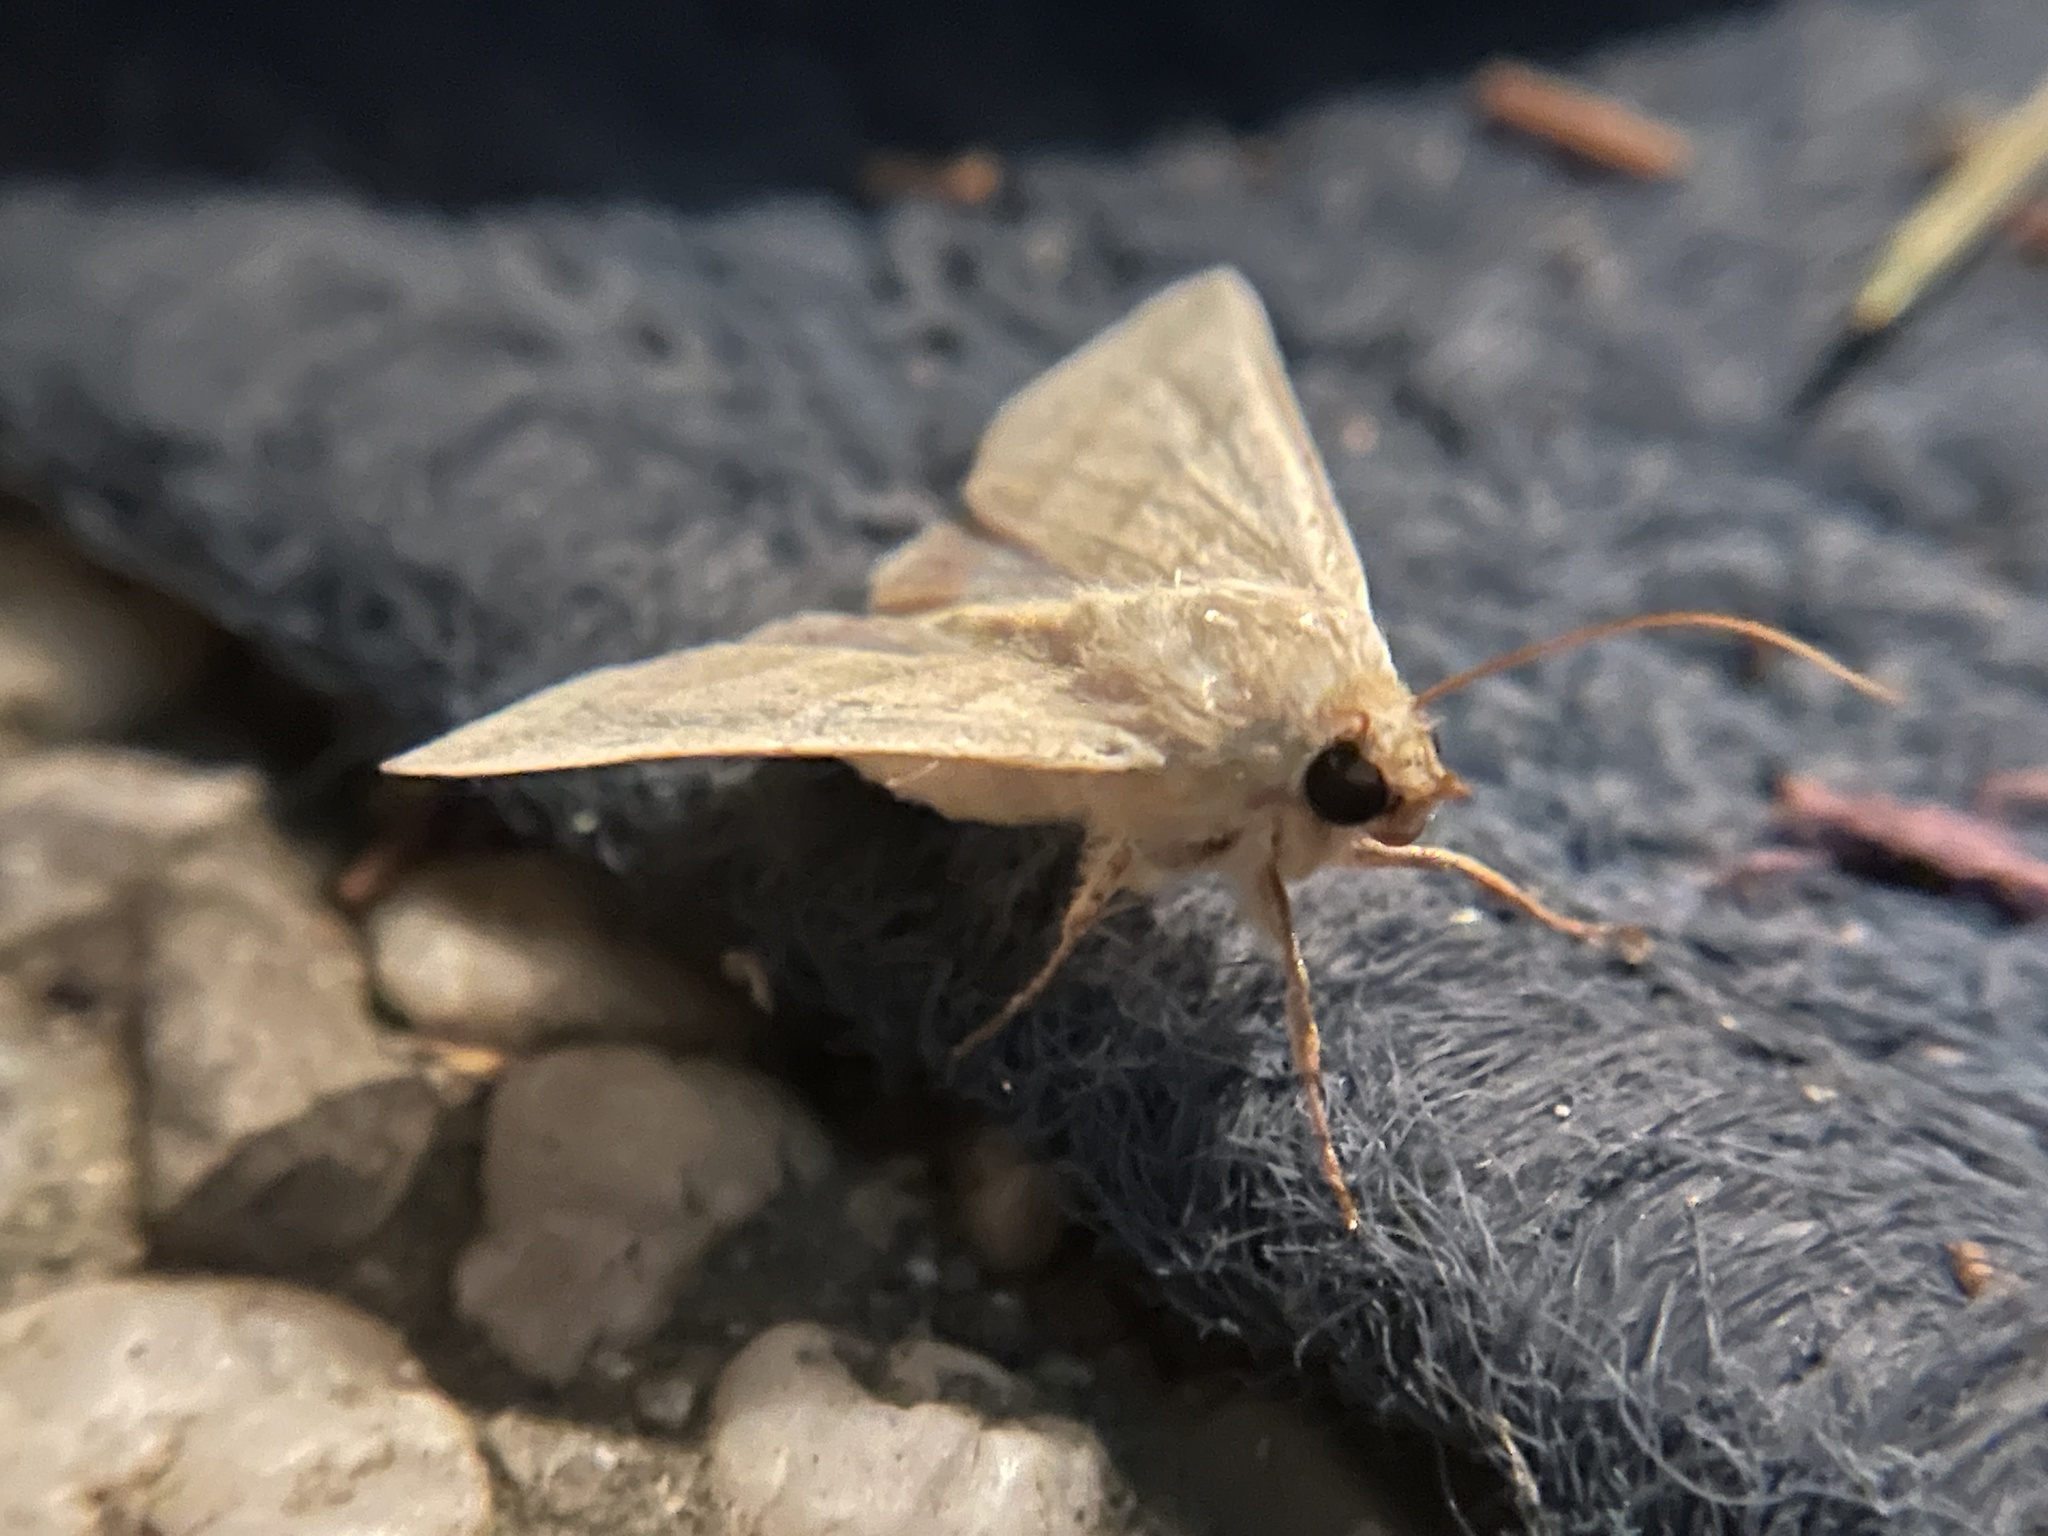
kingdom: Animalia
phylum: Arthropoda
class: Insecta
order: Lepidoptera
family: Noctuidae
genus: Chloridea
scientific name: Chloridea virescens
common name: Tobacco budworm
